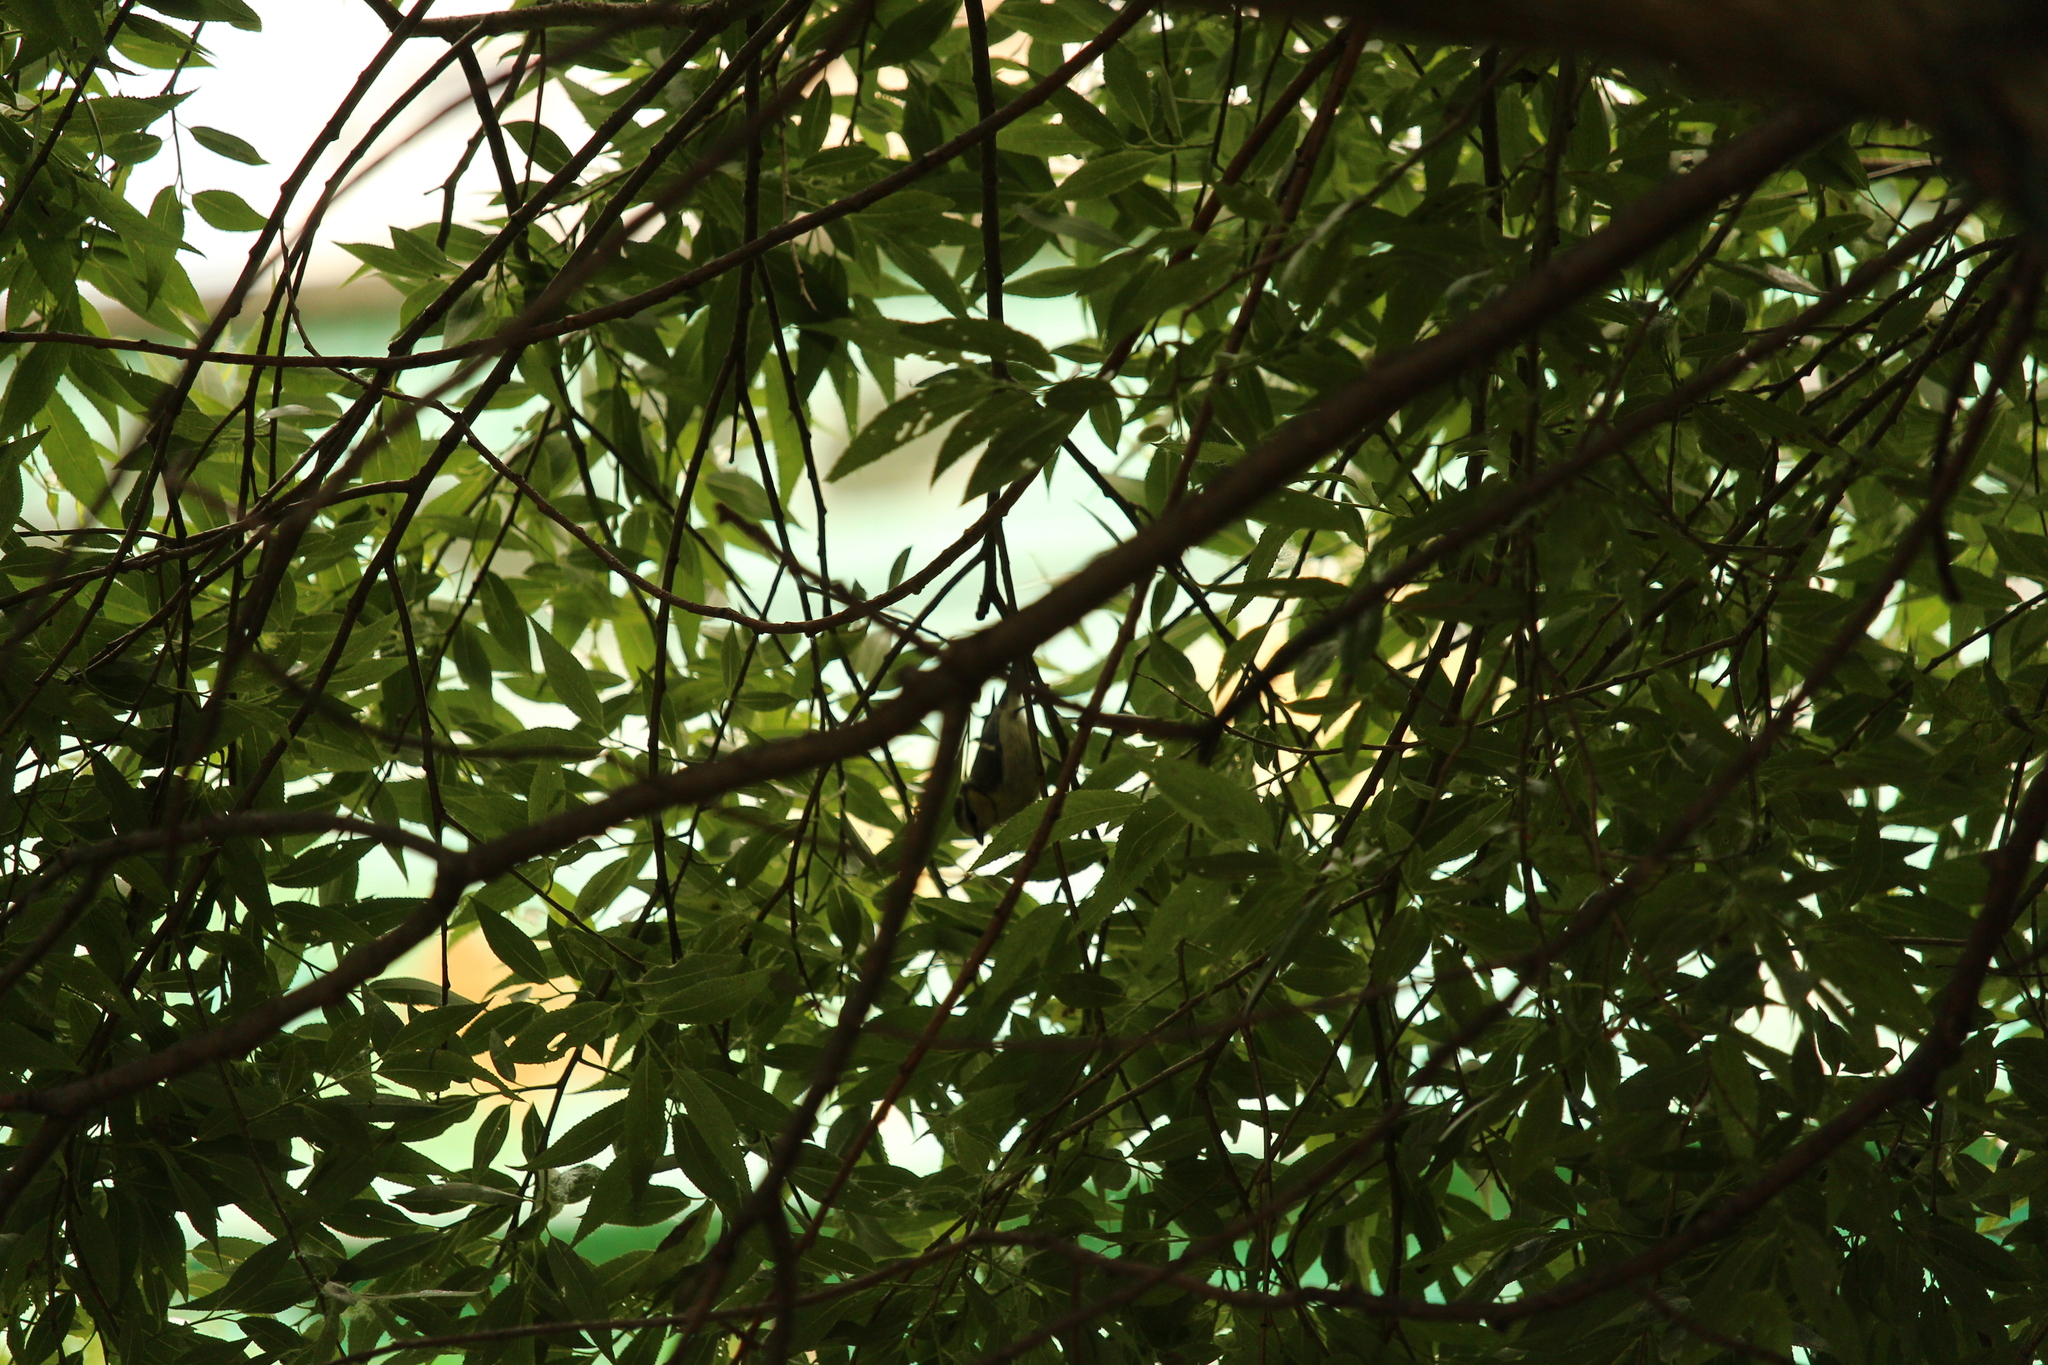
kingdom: Animalia
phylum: Chordata
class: Aves
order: Passeriformes
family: Paridae
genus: Cyanistes
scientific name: Cyanistes caeruleus
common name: Eurasian blue tit
